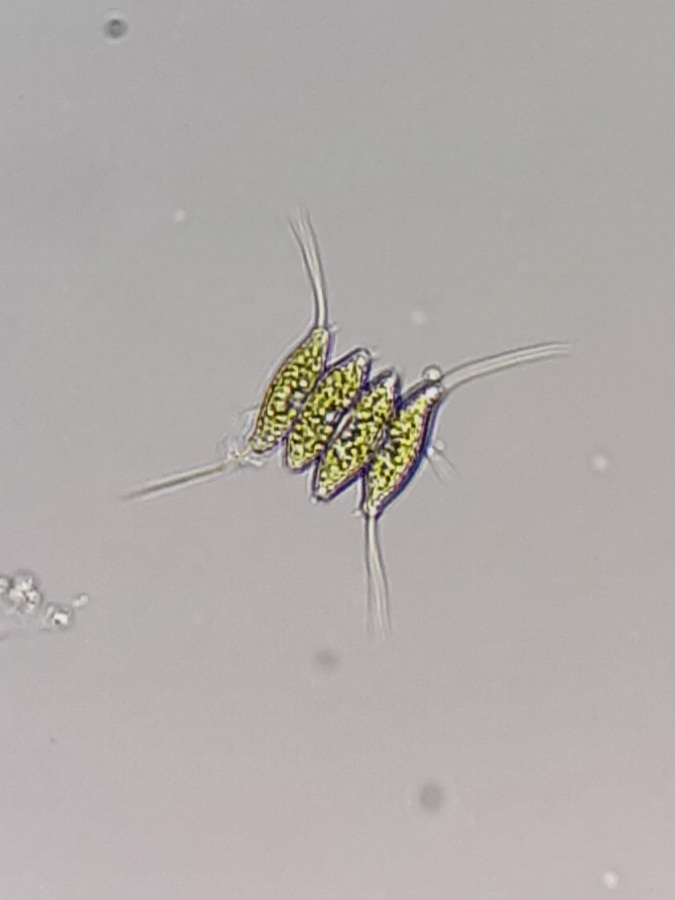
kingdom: Plantae
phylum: Chlorophyta
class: Chlorophyceae
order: Sphaeropleales
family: Scenedesmaceae
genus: Desmodesmus
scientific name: Desmodesmus opoliensis
